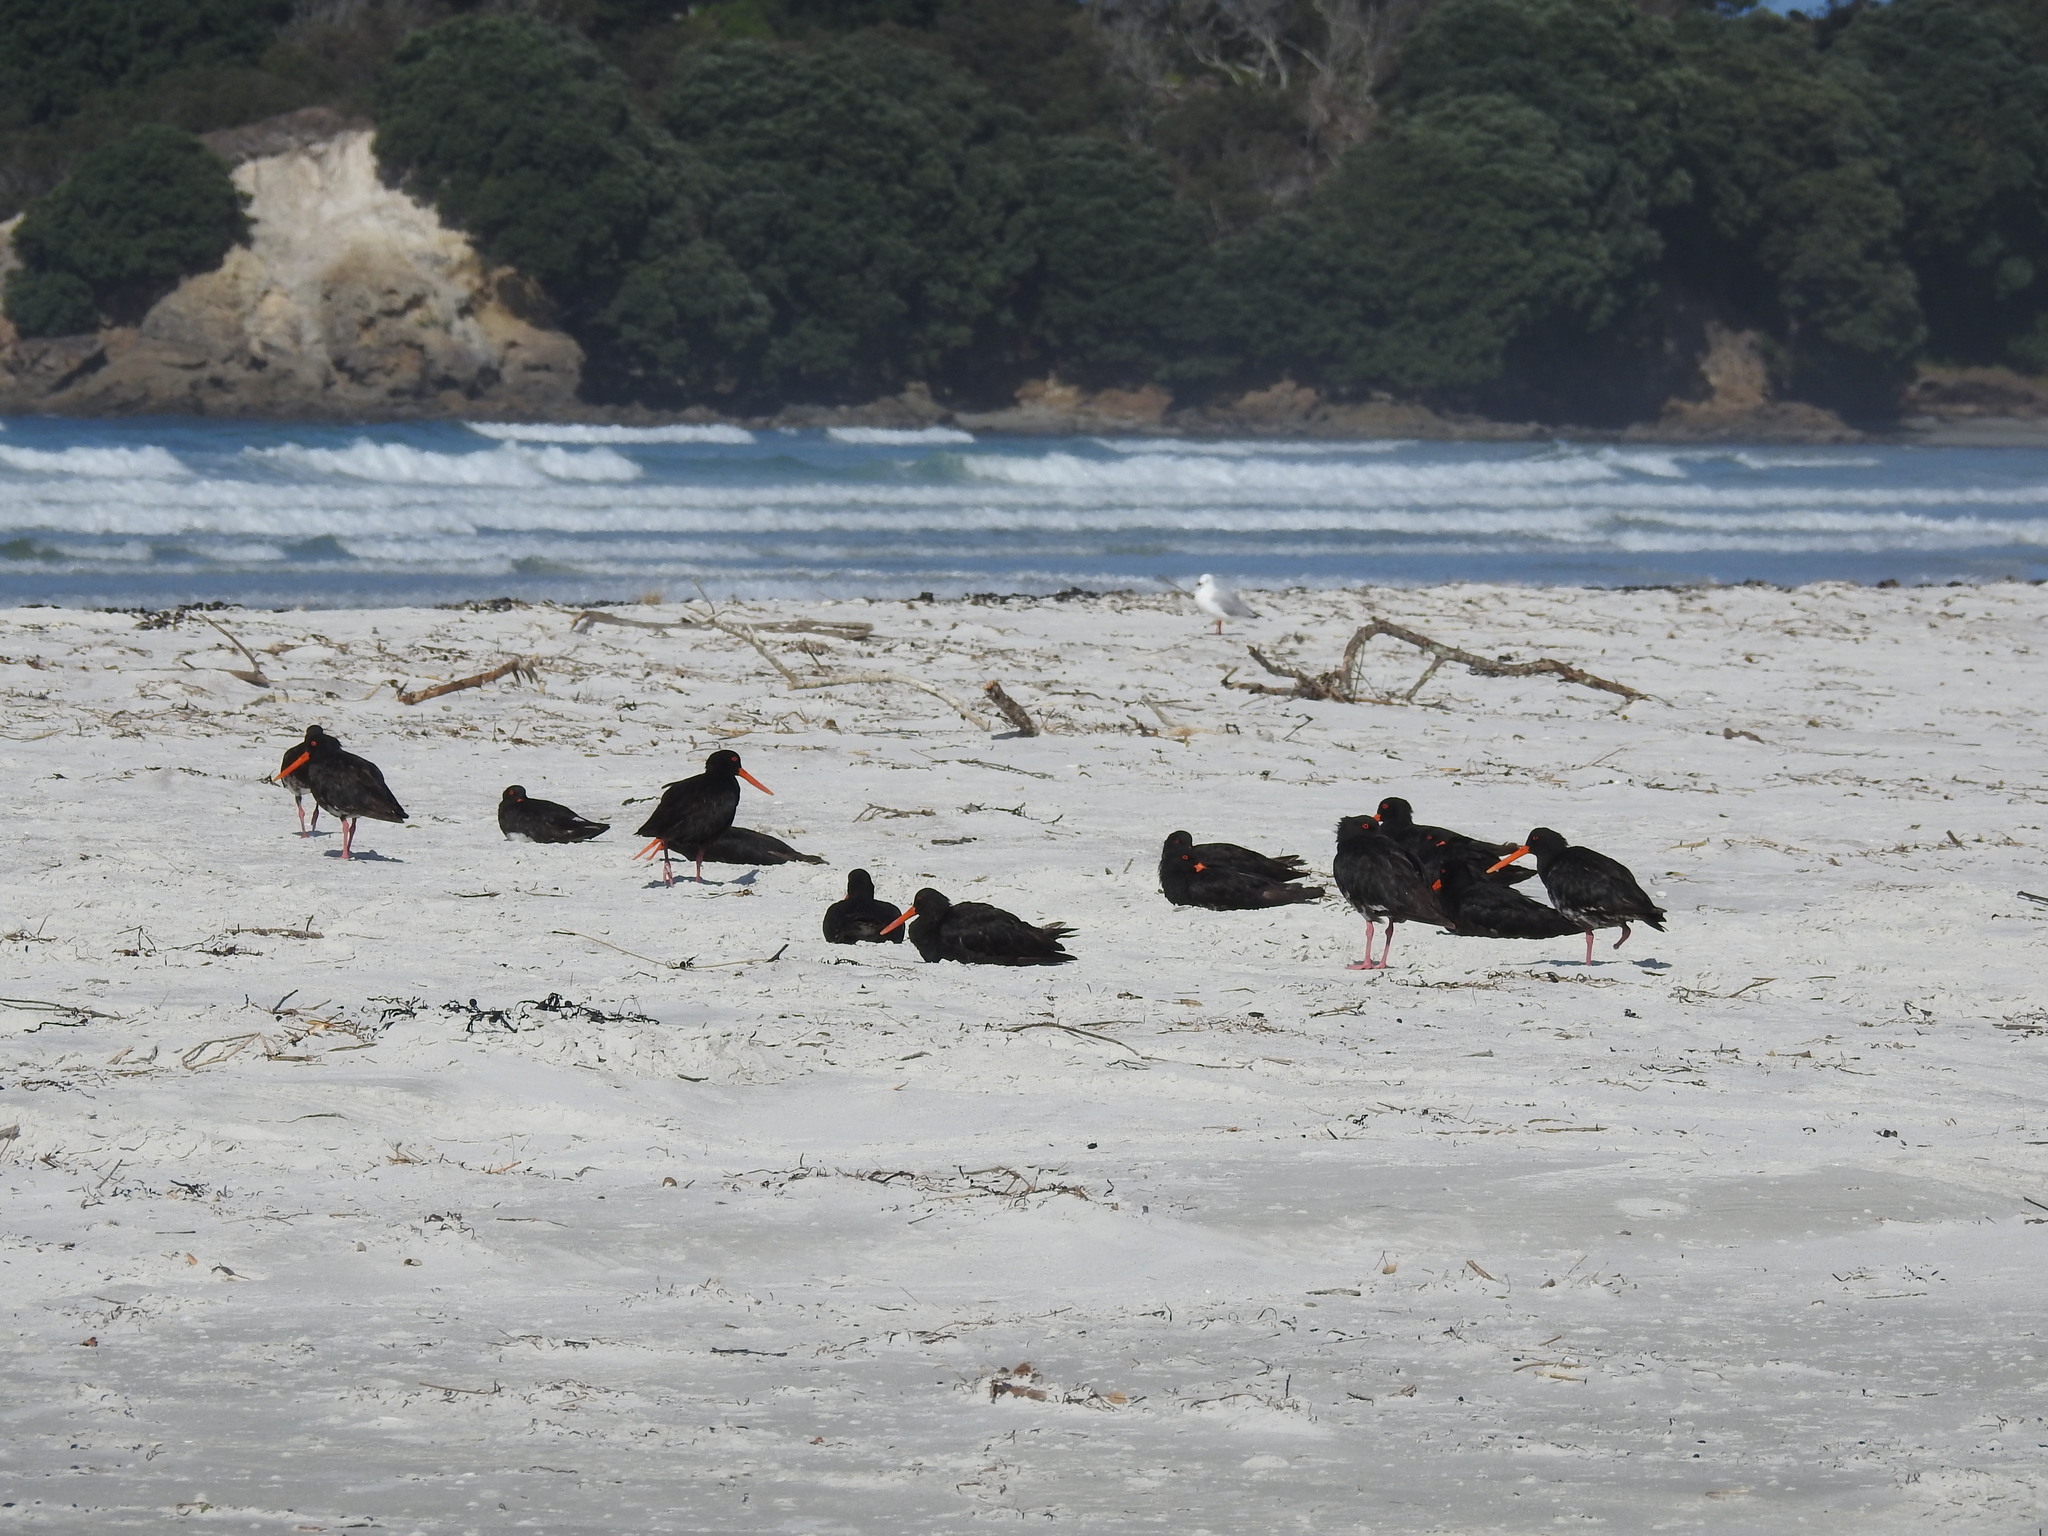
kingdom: Animalia
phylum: Chordata
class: Aves
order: Charadriiformes
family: Haematopodidae
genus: Haematopus
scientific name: Haematopus unicolor
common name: Variable oystercatcher
